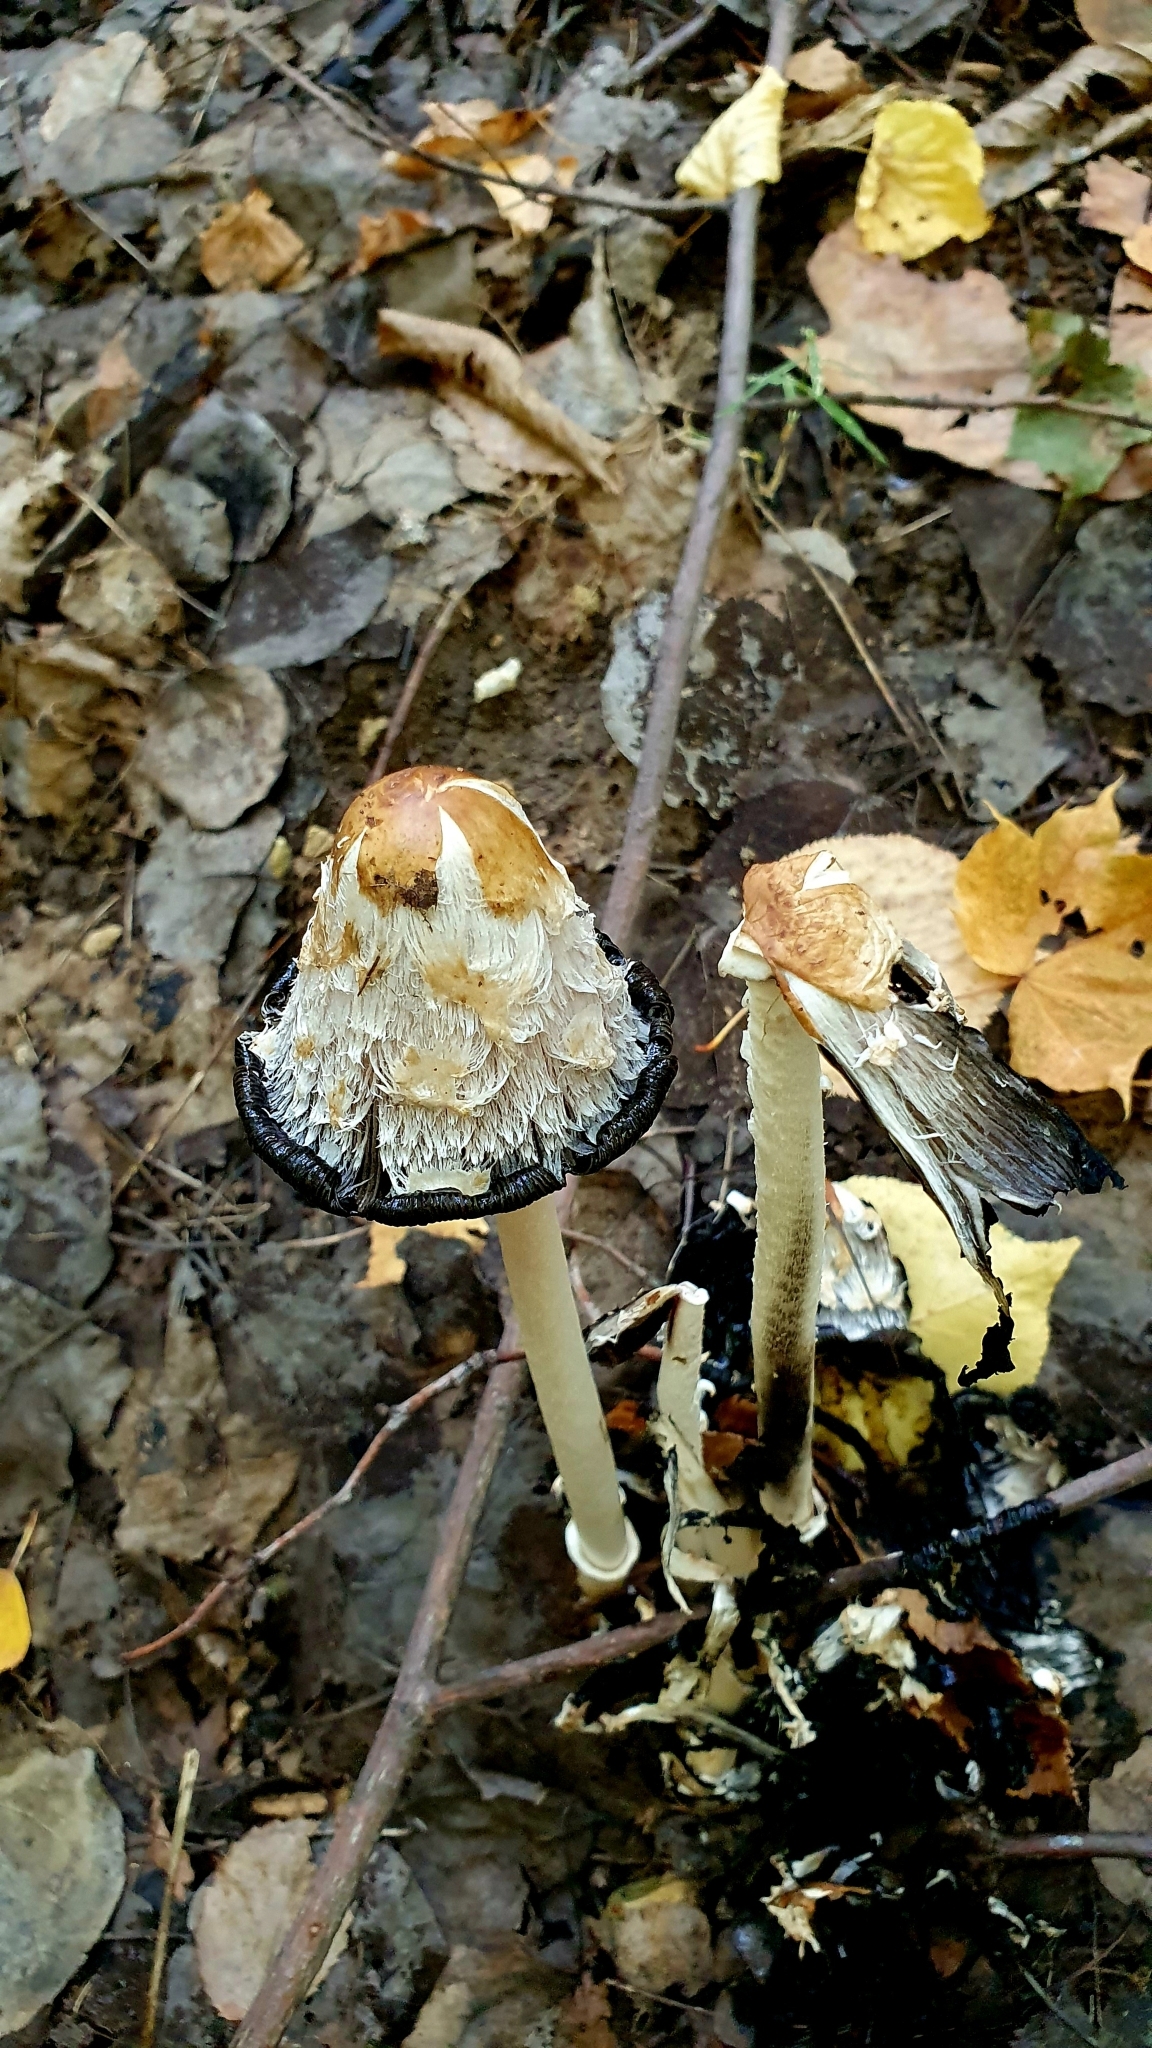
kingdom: Fungi
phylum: Basidiomycota
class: Agaricomycetes
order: Agaricales
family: Agaricaceae
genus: Coprinus
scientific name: Coprinus comatus
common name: Lawyer's wig
